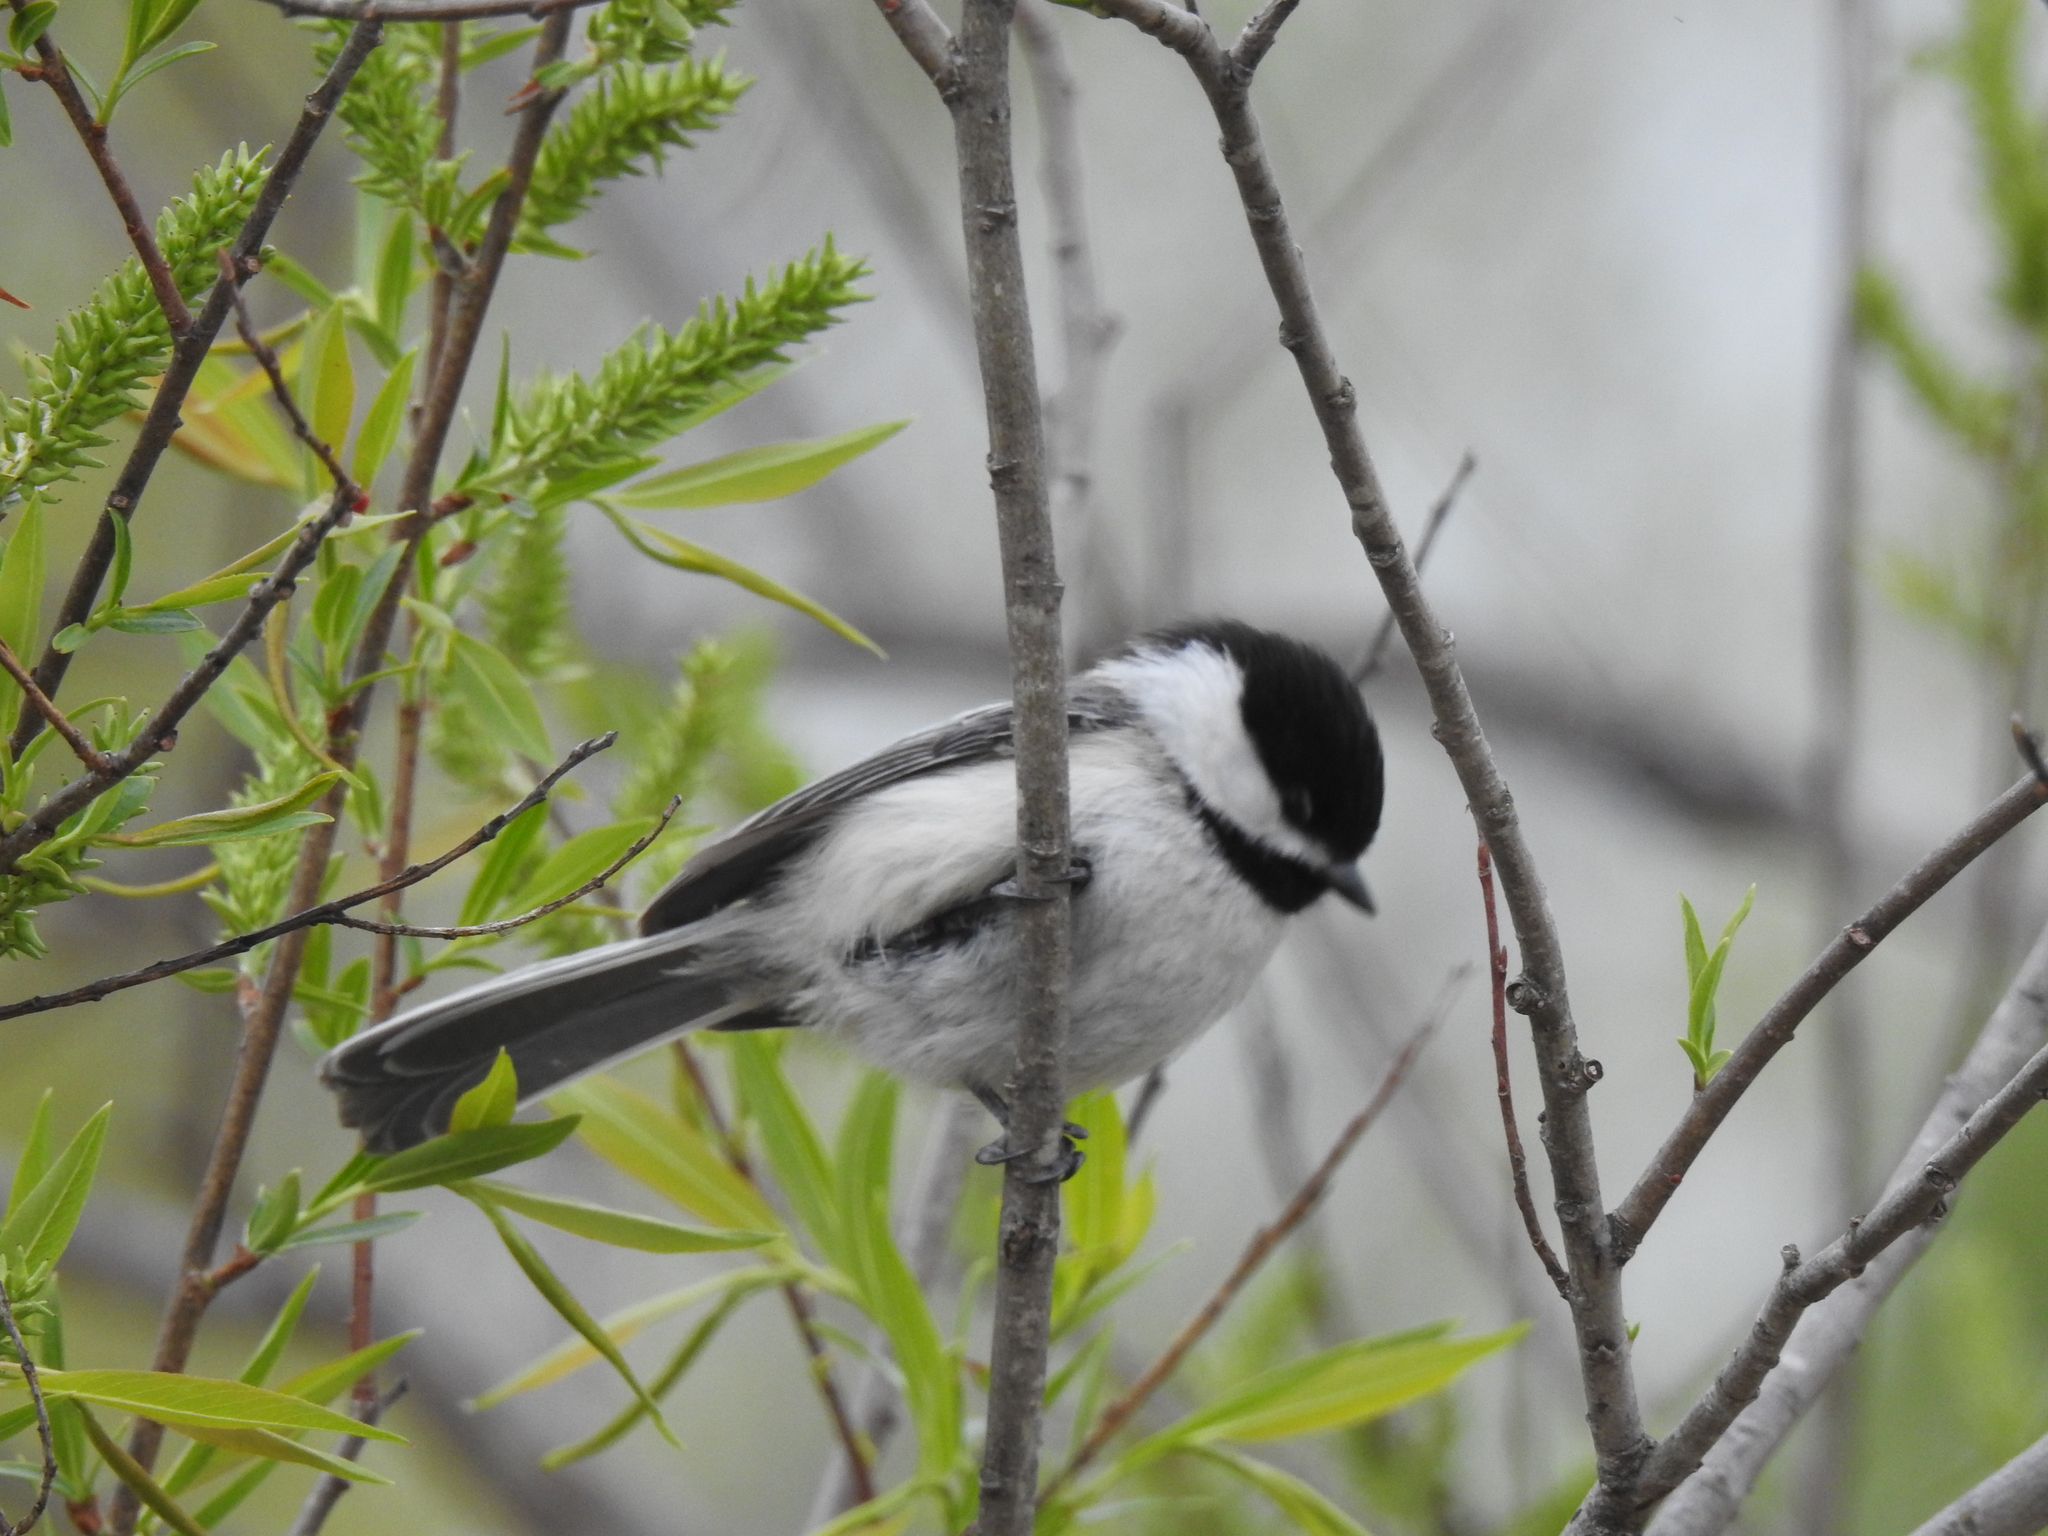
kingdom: Animalia
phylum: Chordata
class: Aves
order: Passeriformes
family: Paridae
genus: Poecile
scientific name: Poecile atricapillus
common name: Black-capped chickadee
